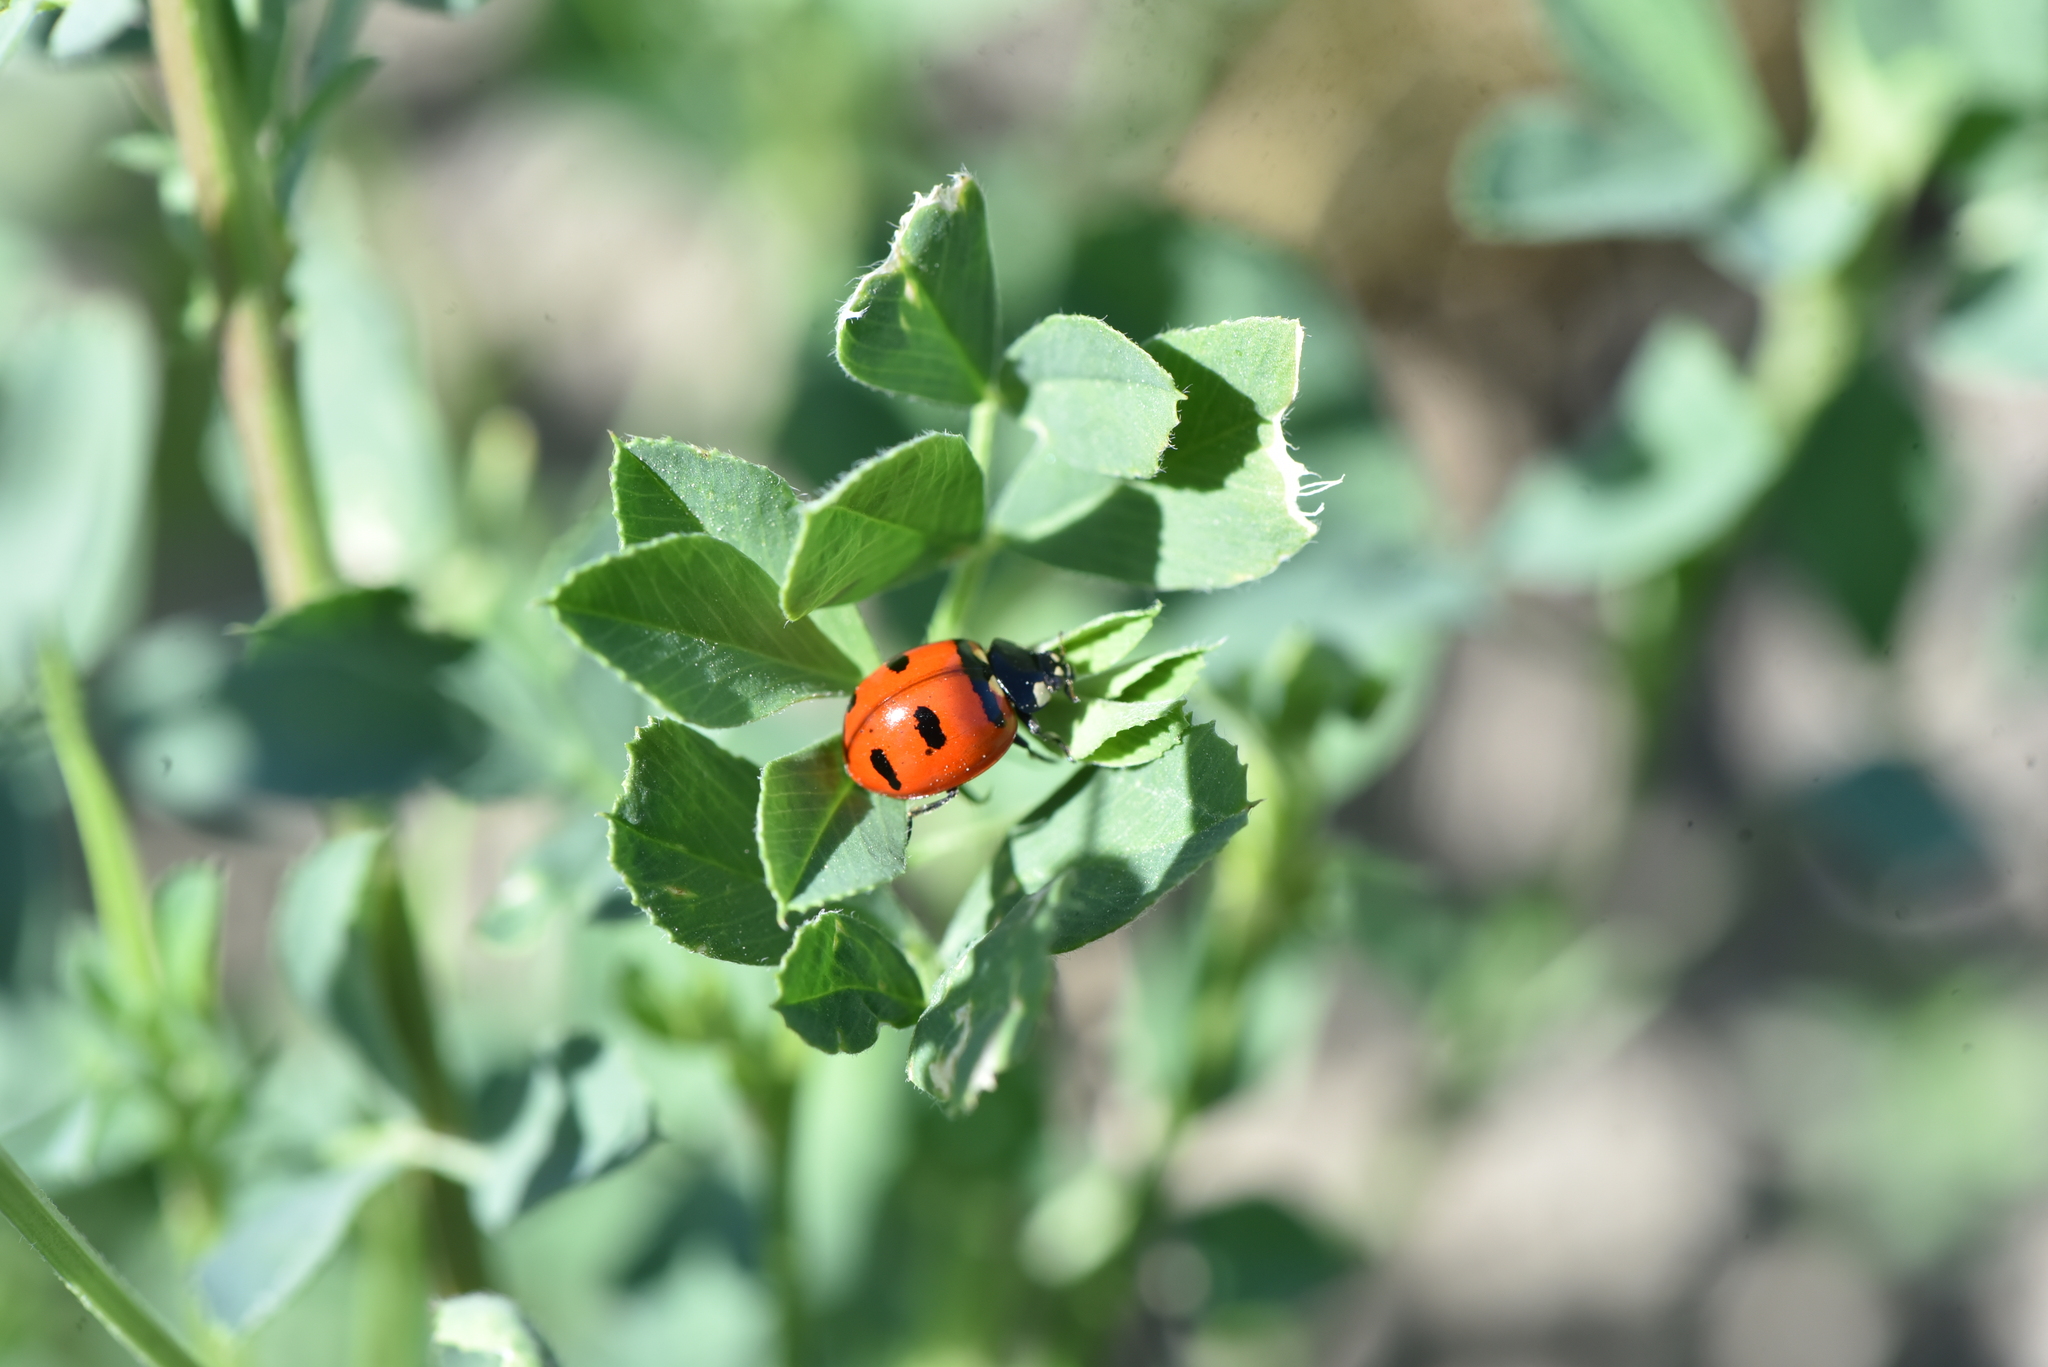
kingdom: Animalia
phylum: Arthropoda
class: Insecta
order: Coleoptera
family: Coccinellidae
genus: Coccinella
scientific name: Coccinella transversoguttata
